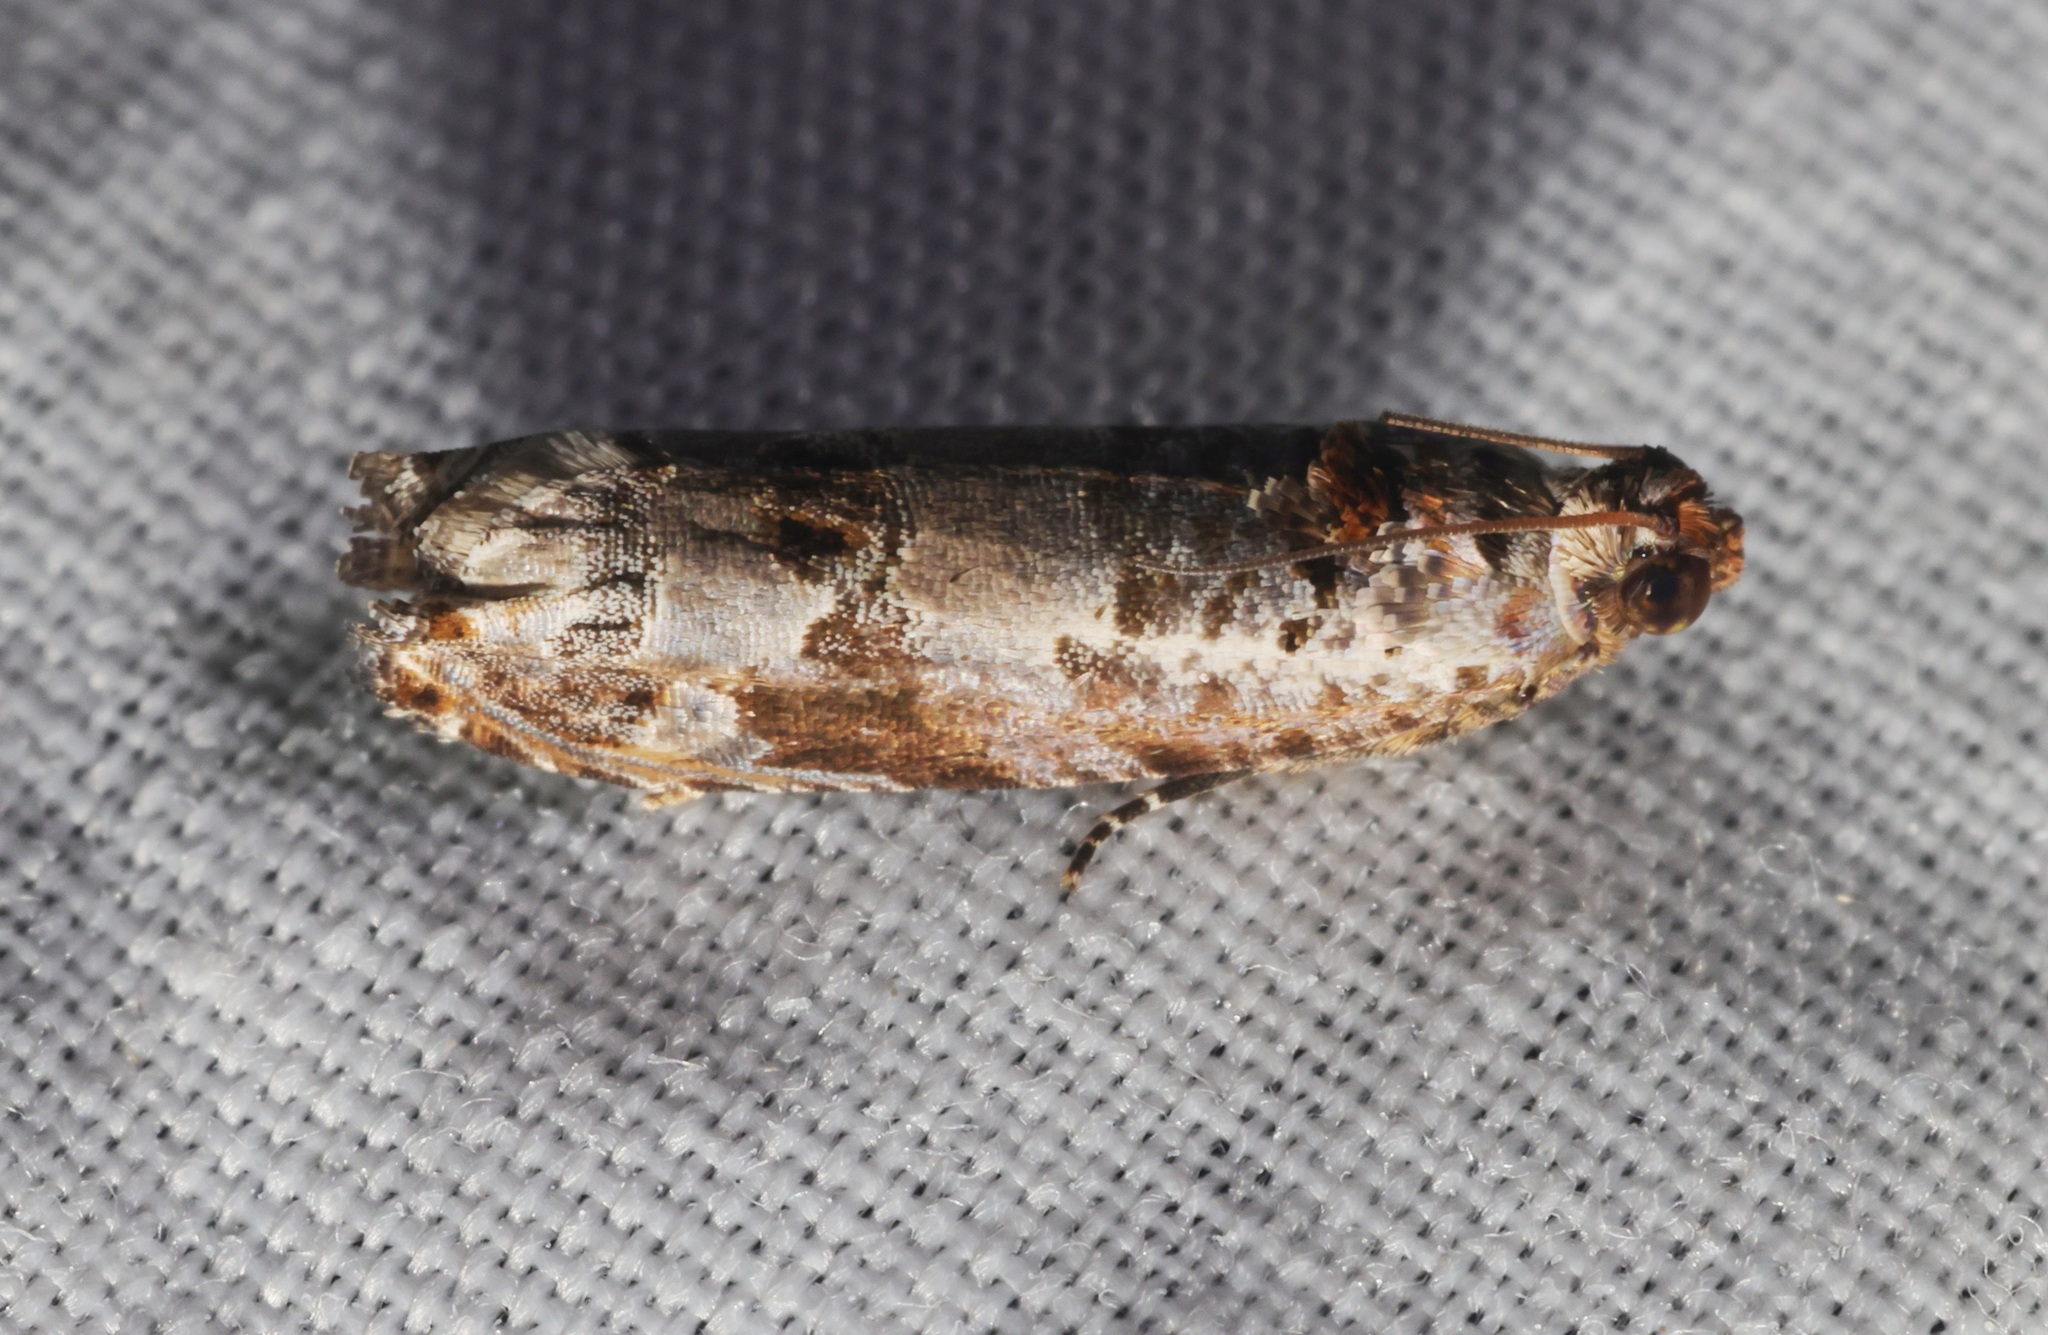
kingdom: Animalia
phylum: Arthropoda
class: Insecta
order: Lepidoptera
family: Tortricidae
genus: Dudua
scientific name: Dudua hemigrapta
